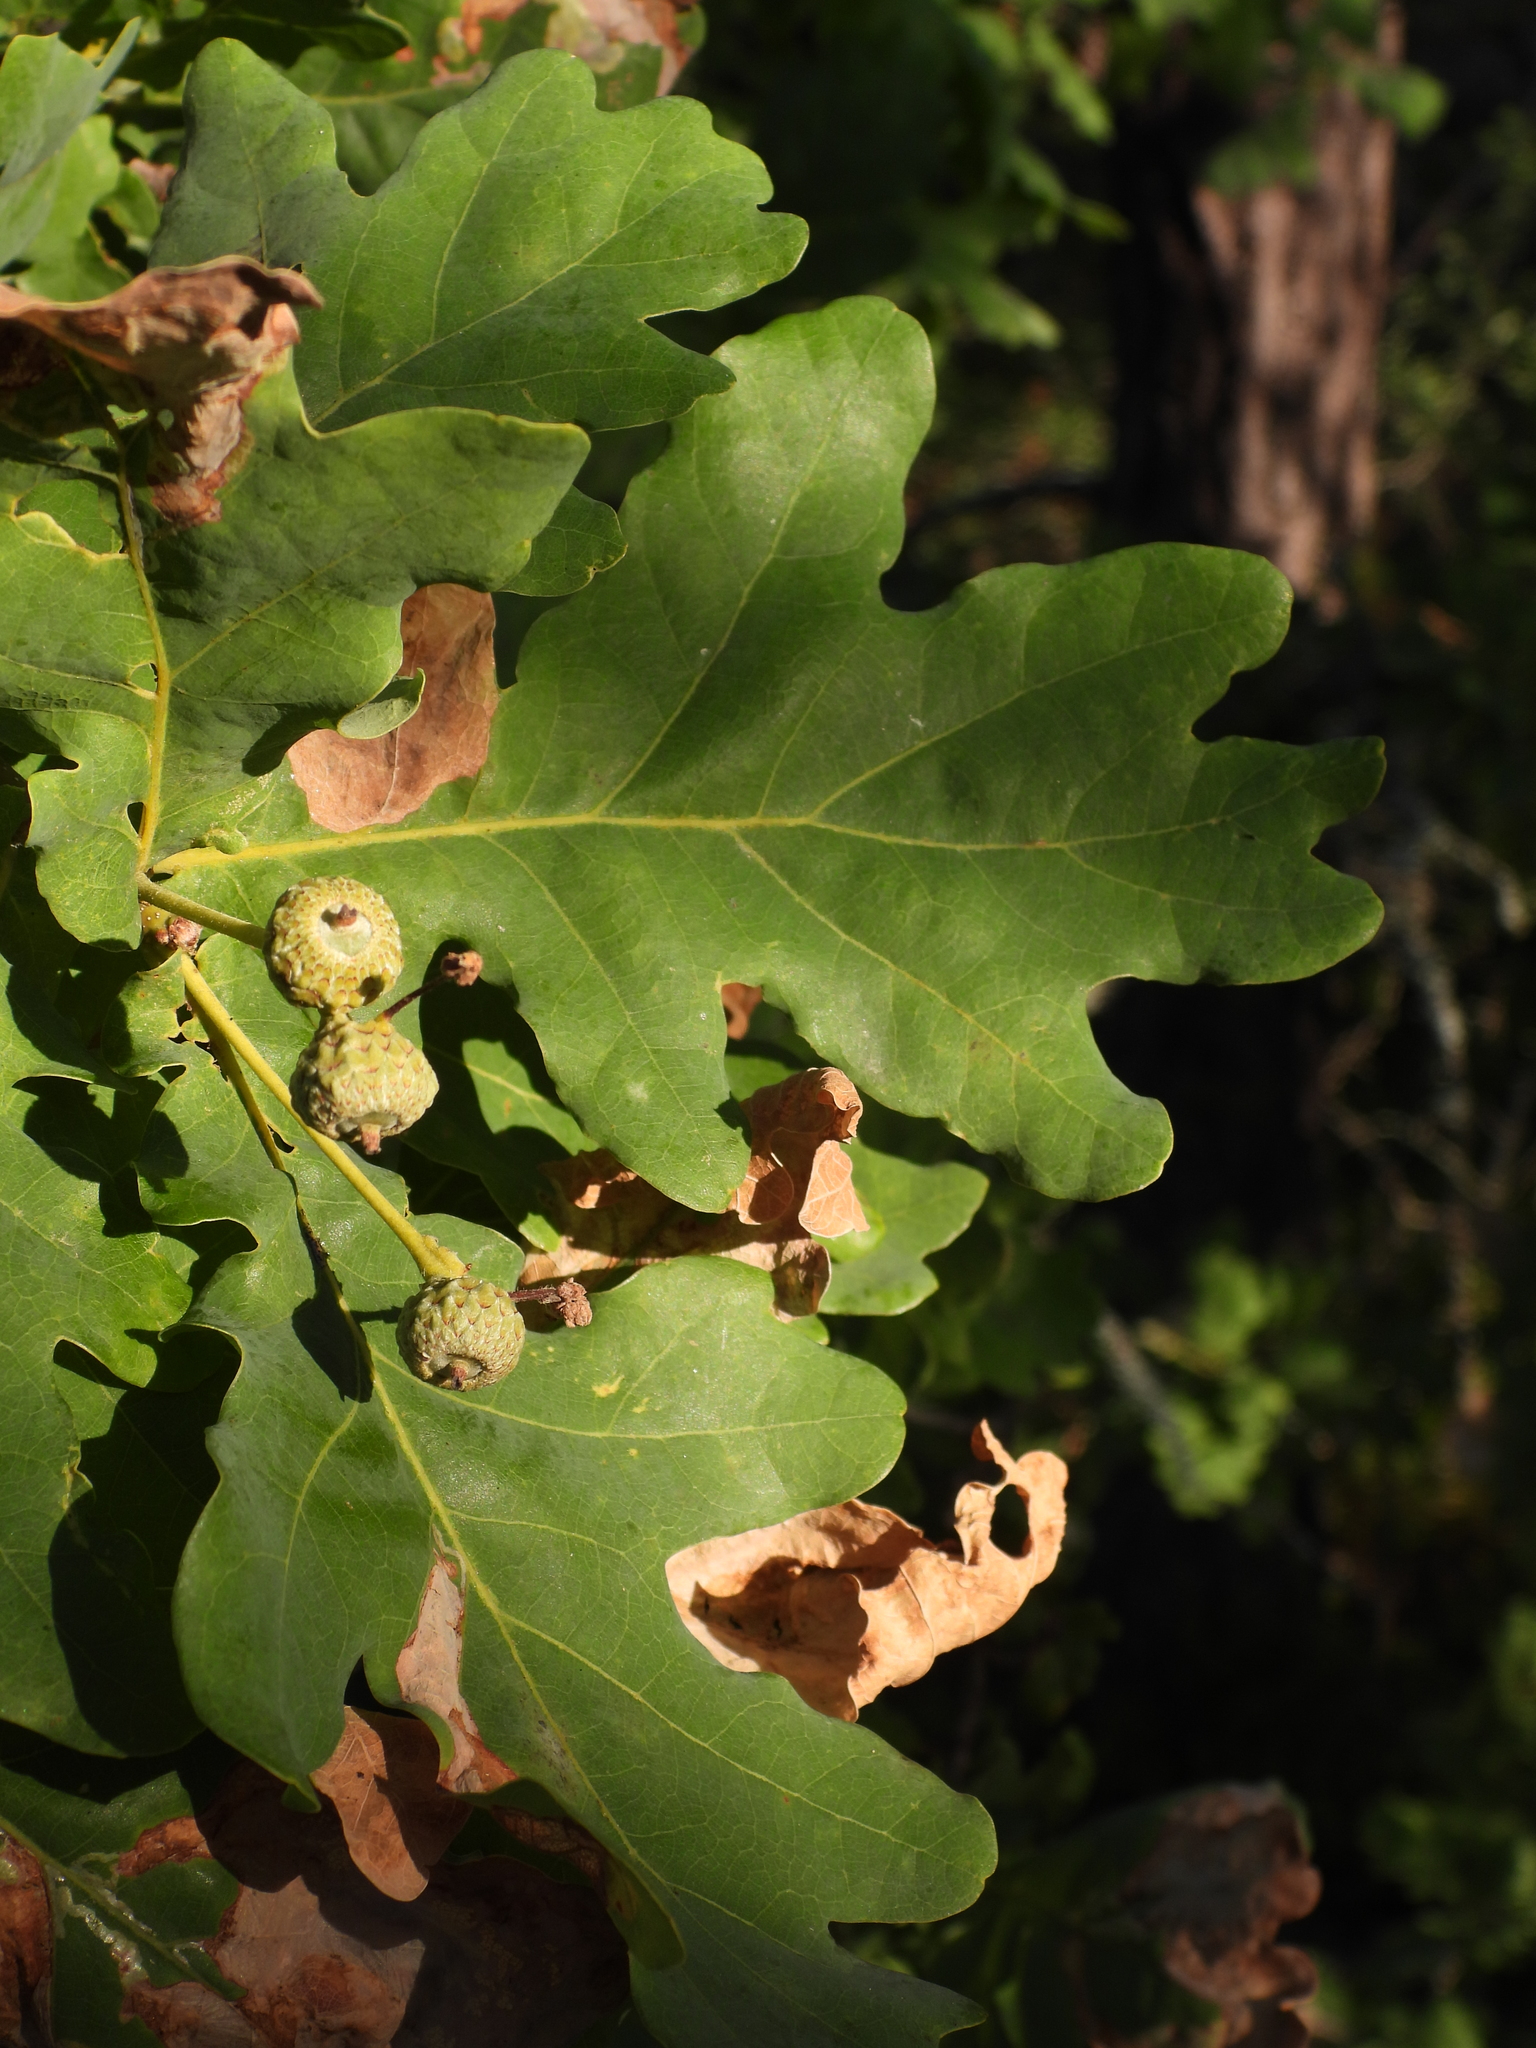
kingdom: Plantae
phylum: Tracheophyta
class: Magnoliopsida
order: Fagales
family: Fagaceae
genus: Quercus
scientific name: Quercus robur
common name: Pedunculate oak
